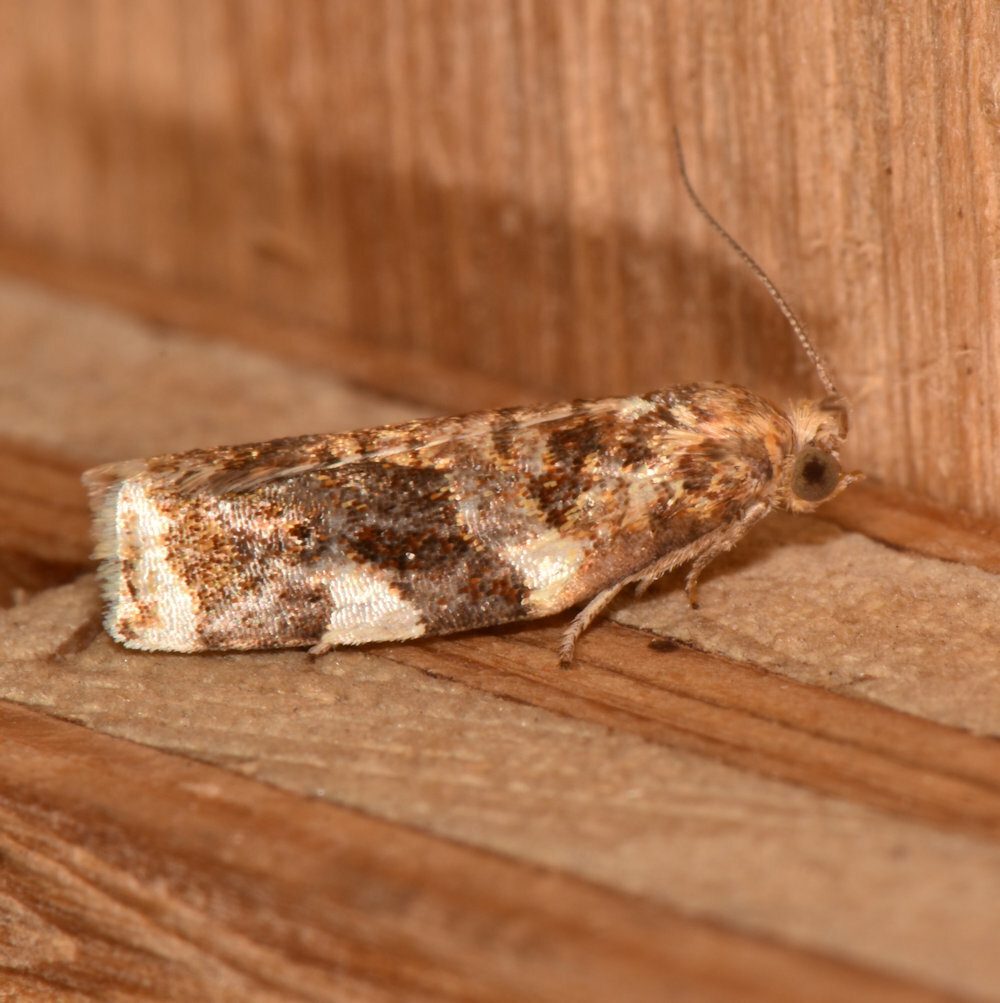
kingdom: Animalia
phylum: Arthropoda
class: Insecta
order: Lepidoptera
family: Tortricidae
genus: Archips
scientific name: Archips argyrospila
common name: Fruit-tree leafroller moth
